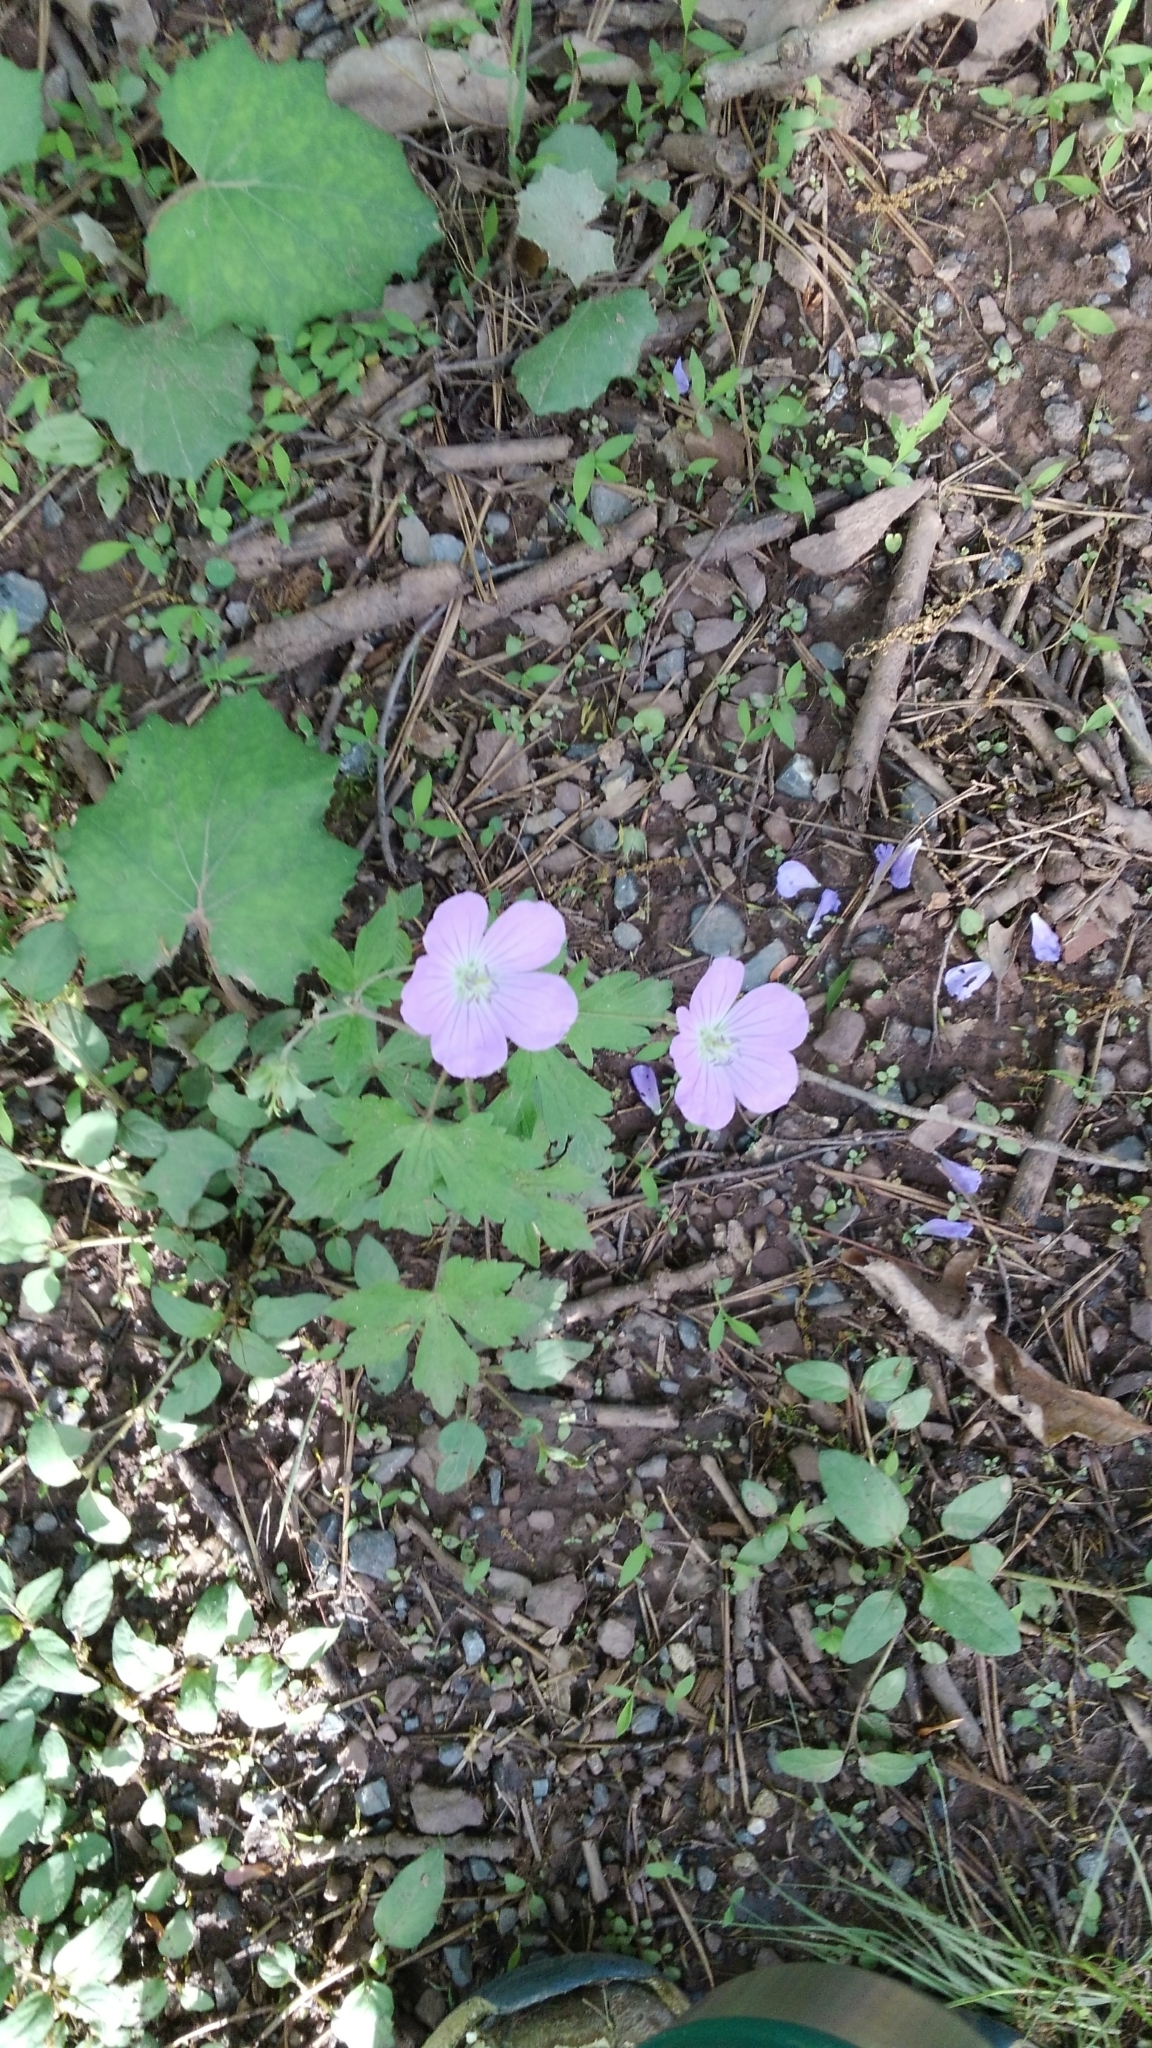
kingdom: Plantae
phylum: Tracheophyta
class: Magnoliopsida
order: Geraniales
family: Geraniaceae
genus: Geranium
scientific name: Geranium maculatum
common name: Spotted geranium
